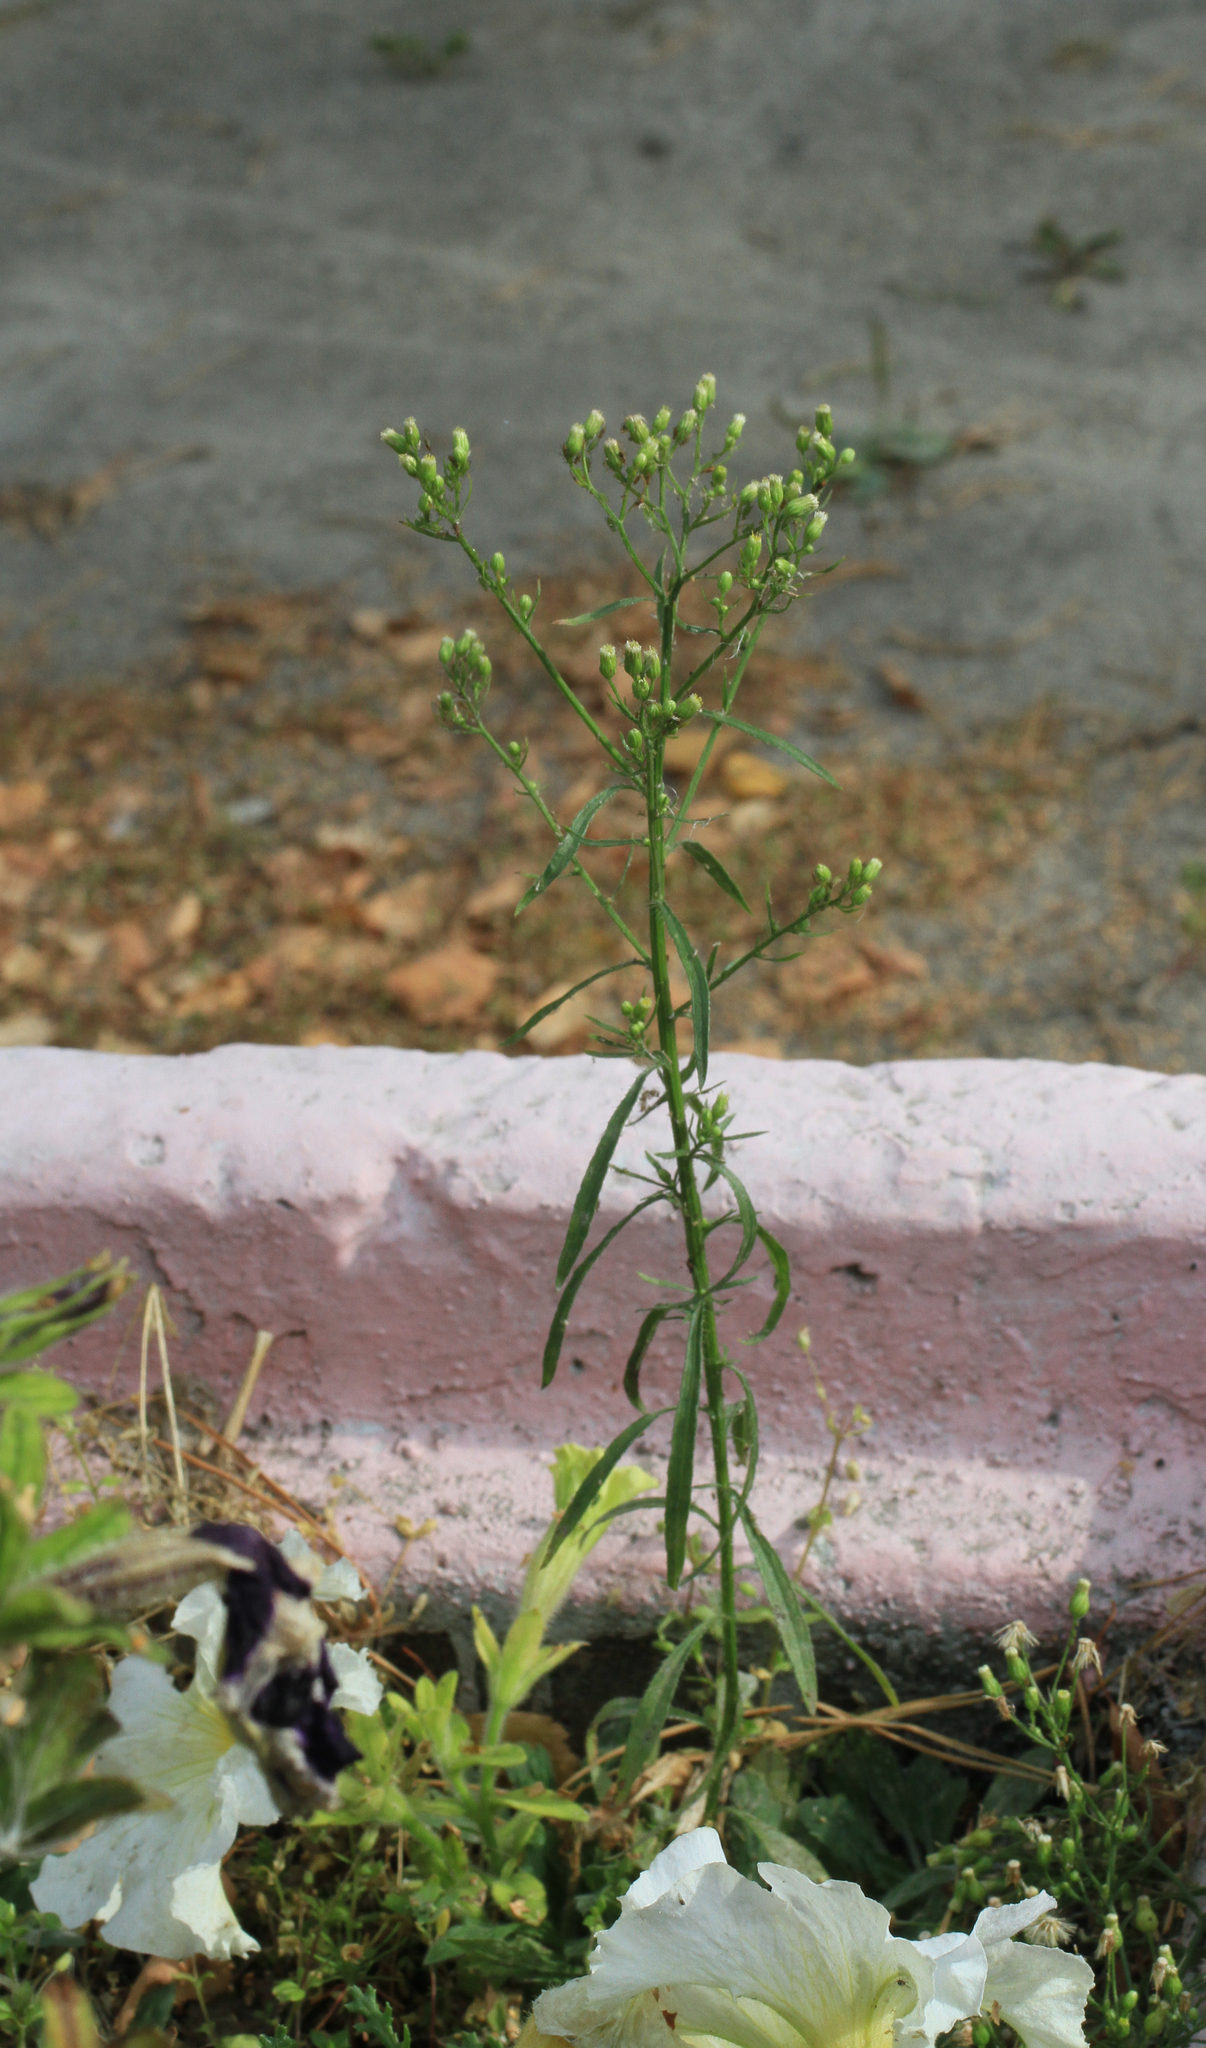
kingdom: Plantae
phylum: Tracheophyta
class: Magnoliopsida
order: Asterales
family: Asteraceae
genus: Erigeron
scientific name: Erigeron canadensis
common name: Canadian fleabane
